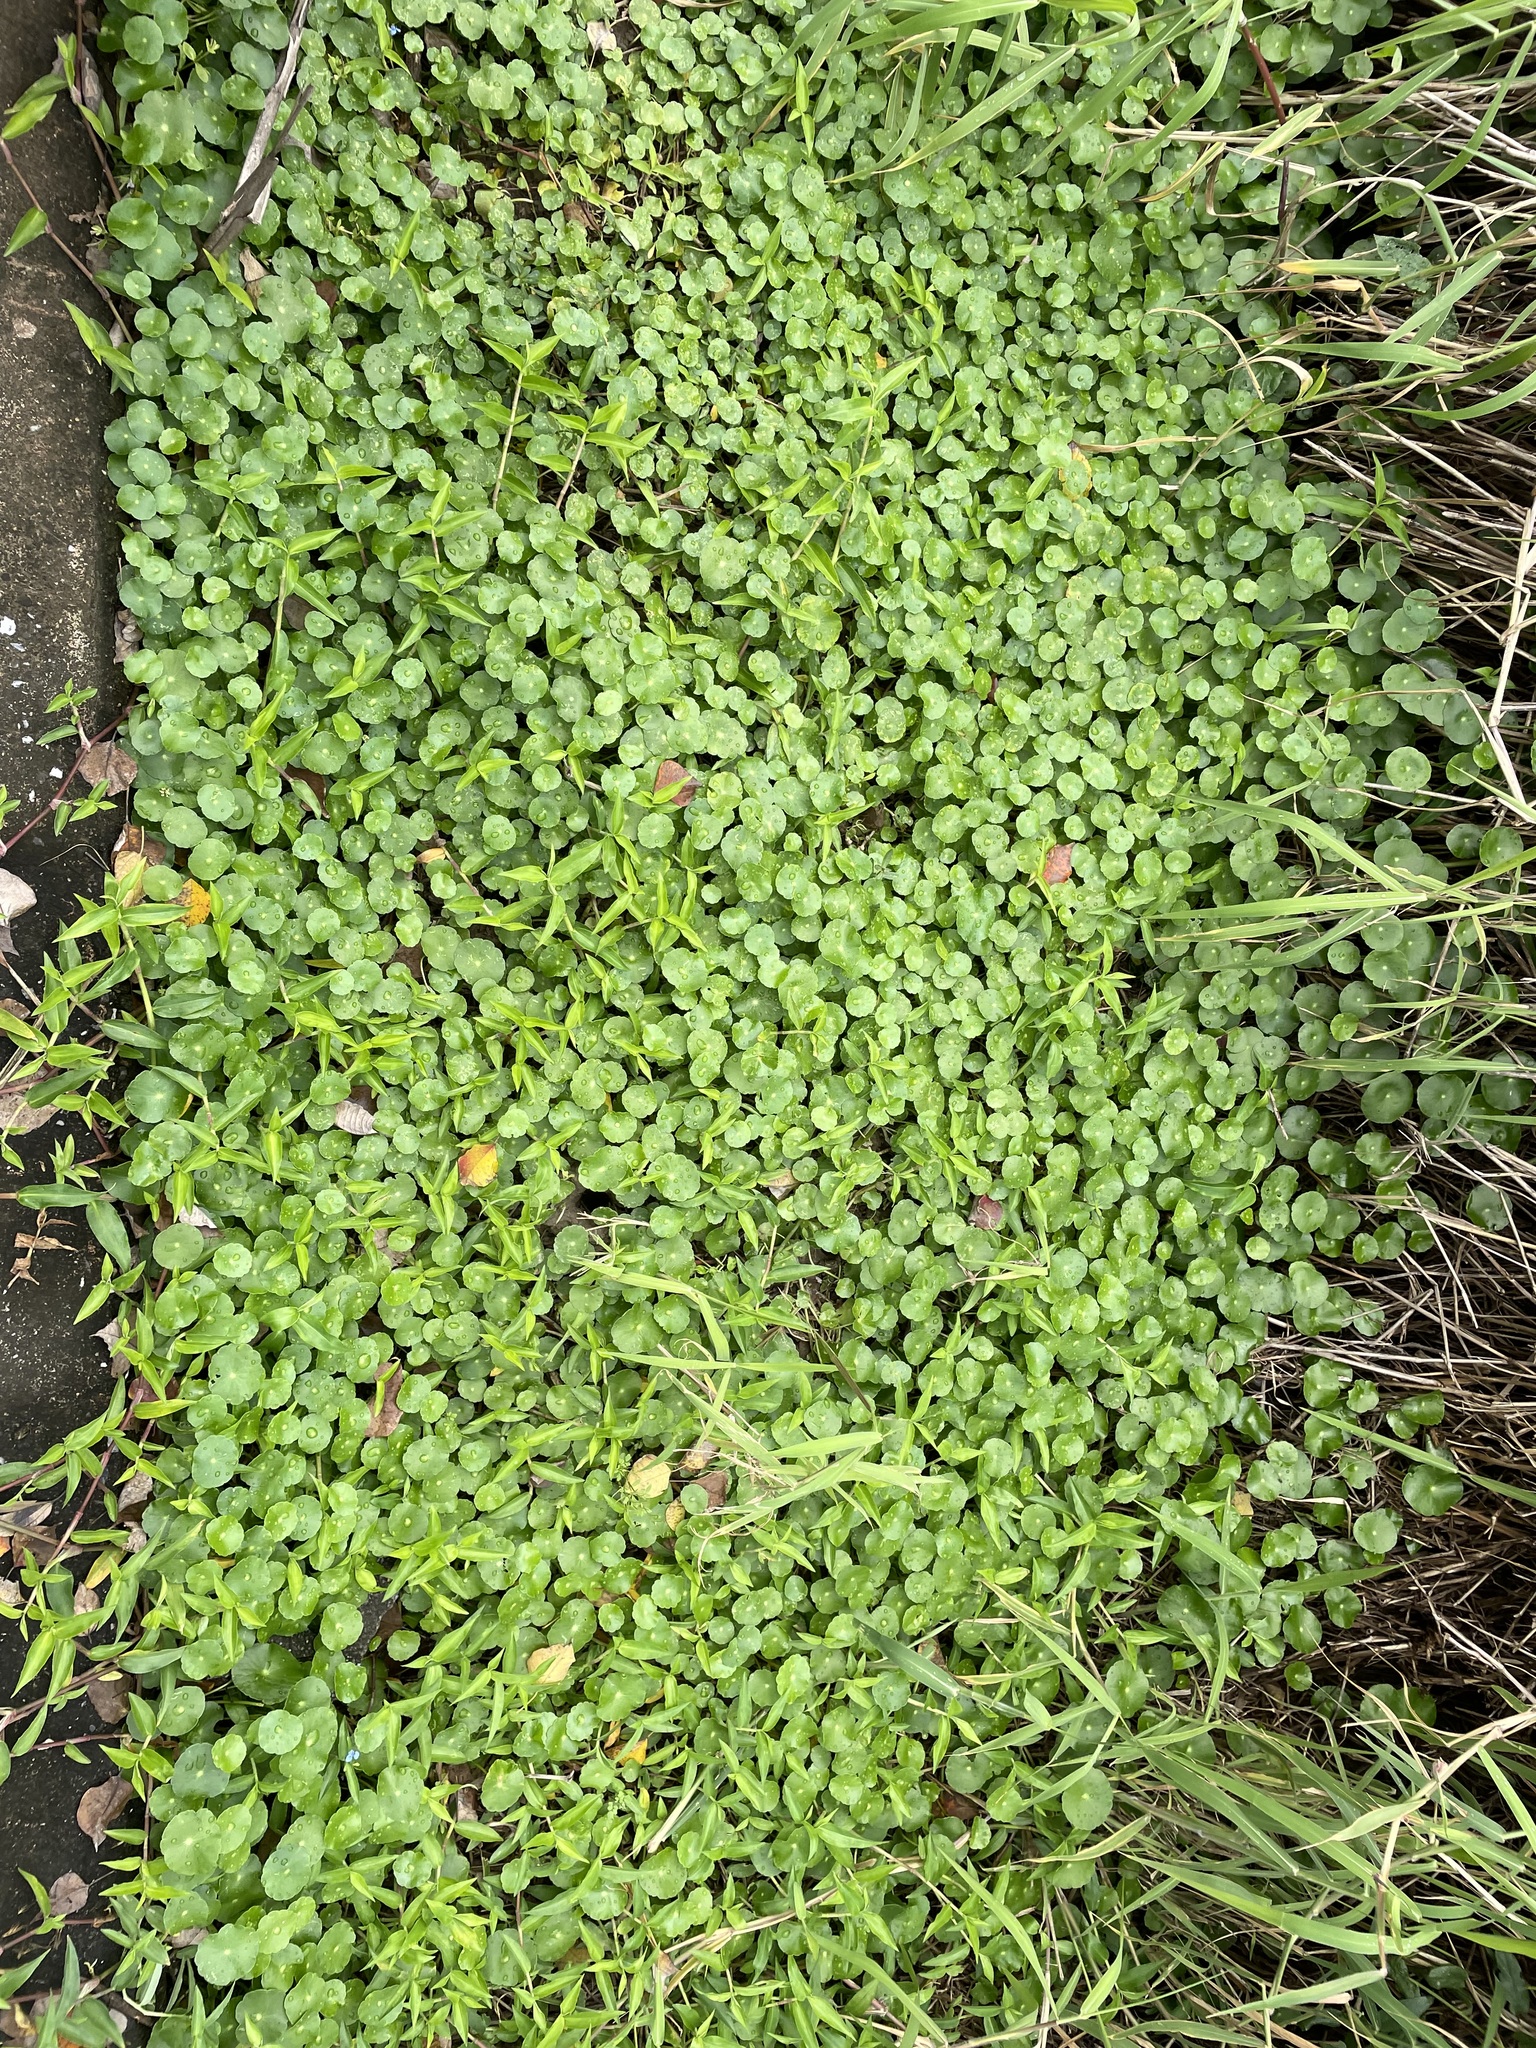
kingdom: Plantae
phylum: Tracheophyta
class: Magnoliopsida
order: Apiales
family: Araliaceae
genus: Hydrocotyle
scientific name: Hydrocotyle verticillata
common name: Whorled marshpennywort
